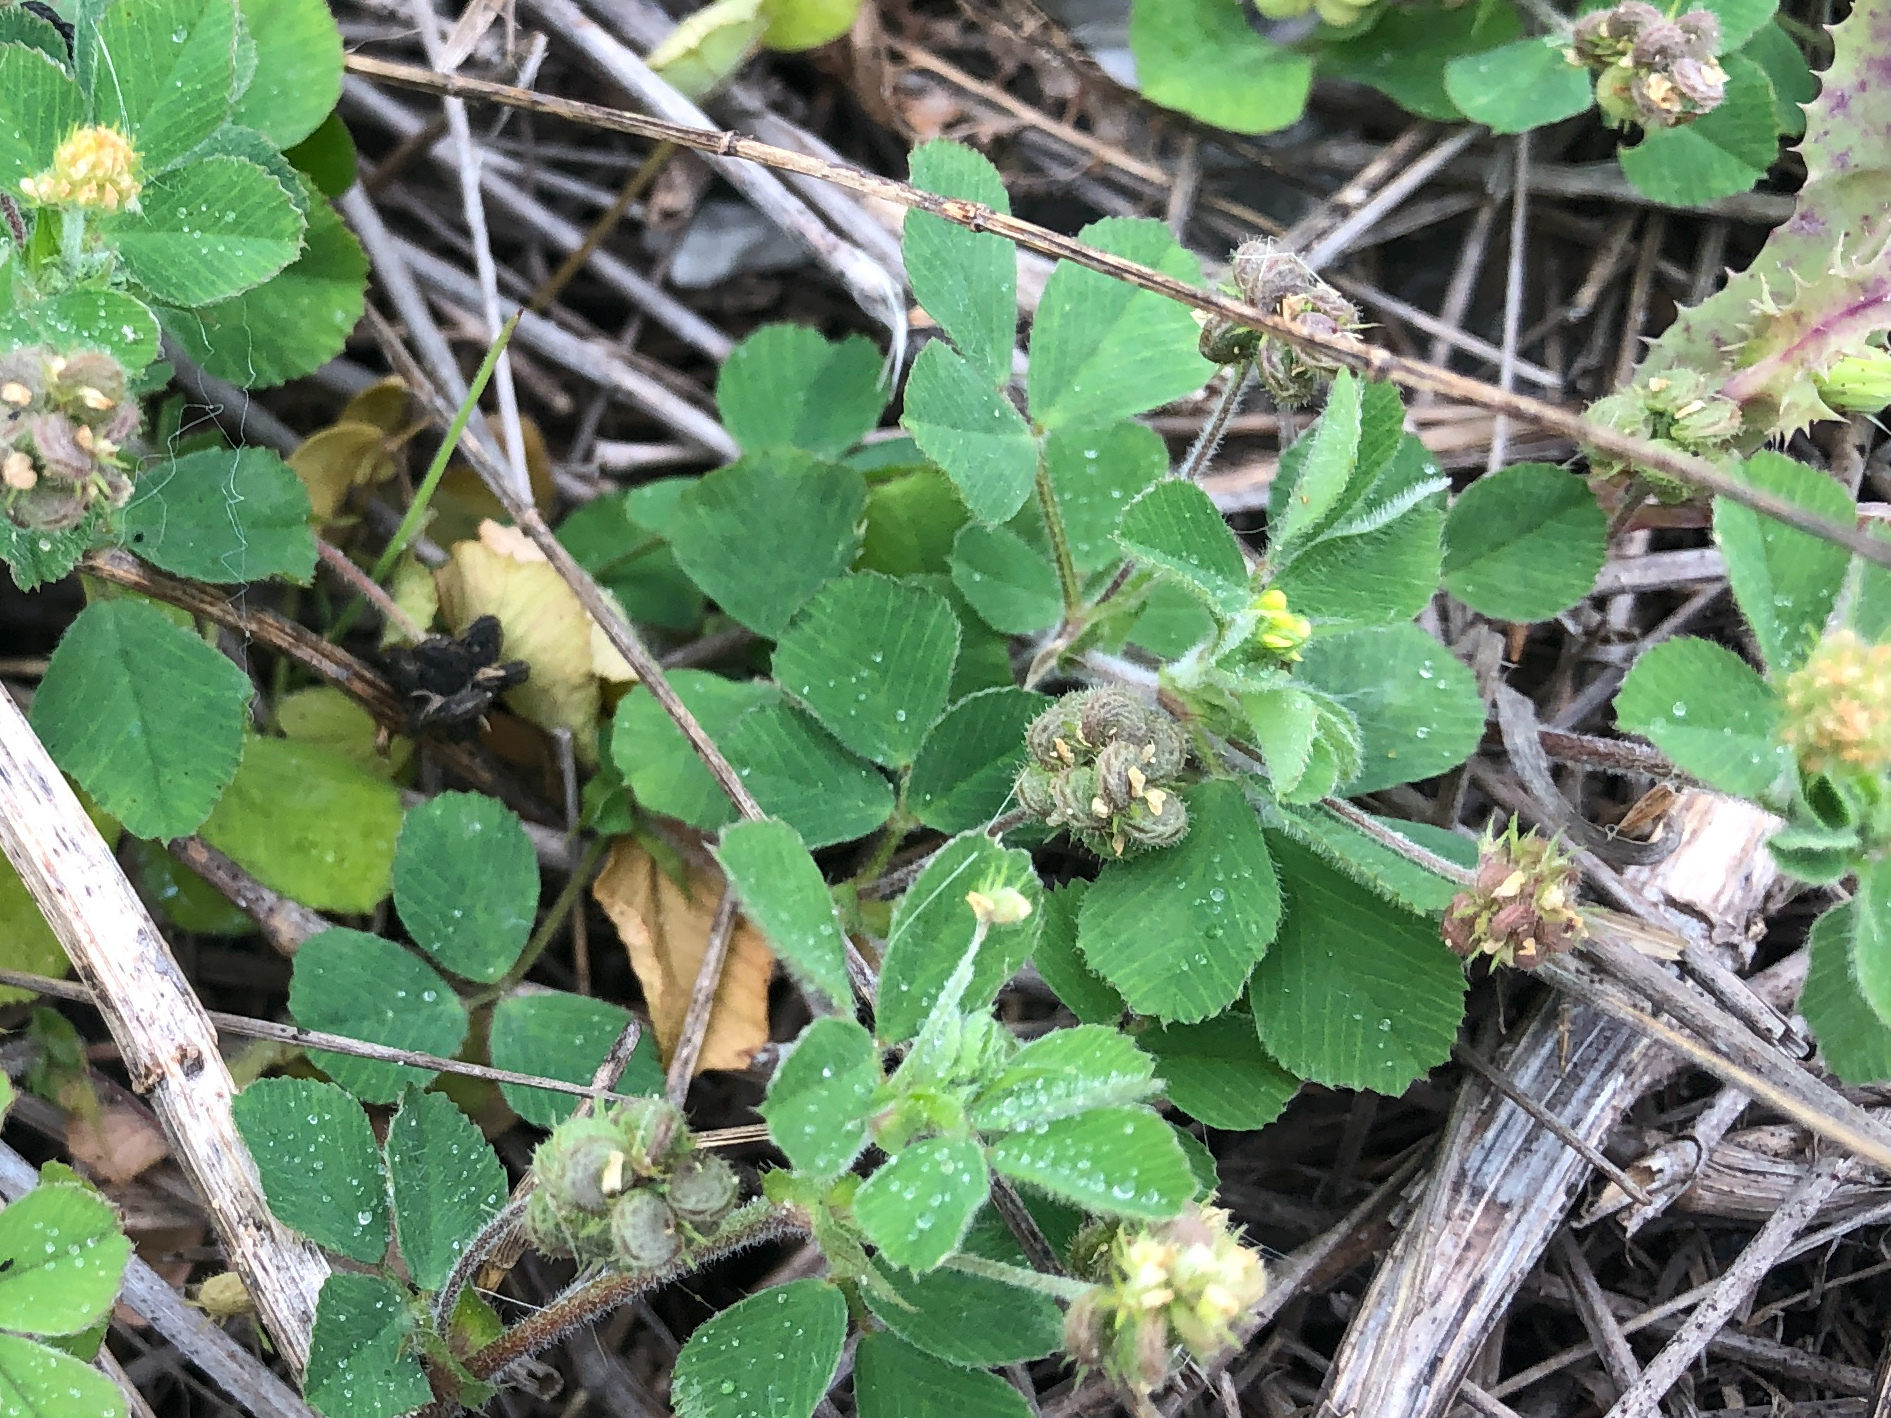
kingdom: Plantae
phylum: Tracheophyta
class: Magnoliopsida
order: Fabales
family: Fabaceae
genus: Medicago
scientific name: Medicago lupulina
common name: Black medick
